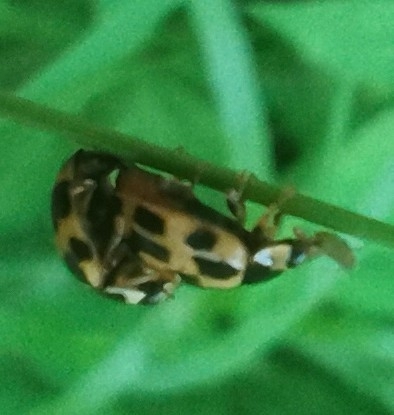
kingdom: Animalia
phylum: Arthropoda
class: Insecta
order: Coleoptera
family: Coccinellidae
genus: Propylaea
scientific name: Propylaea quatuordecimpunctata
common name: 14-spotted ladybird beetle
